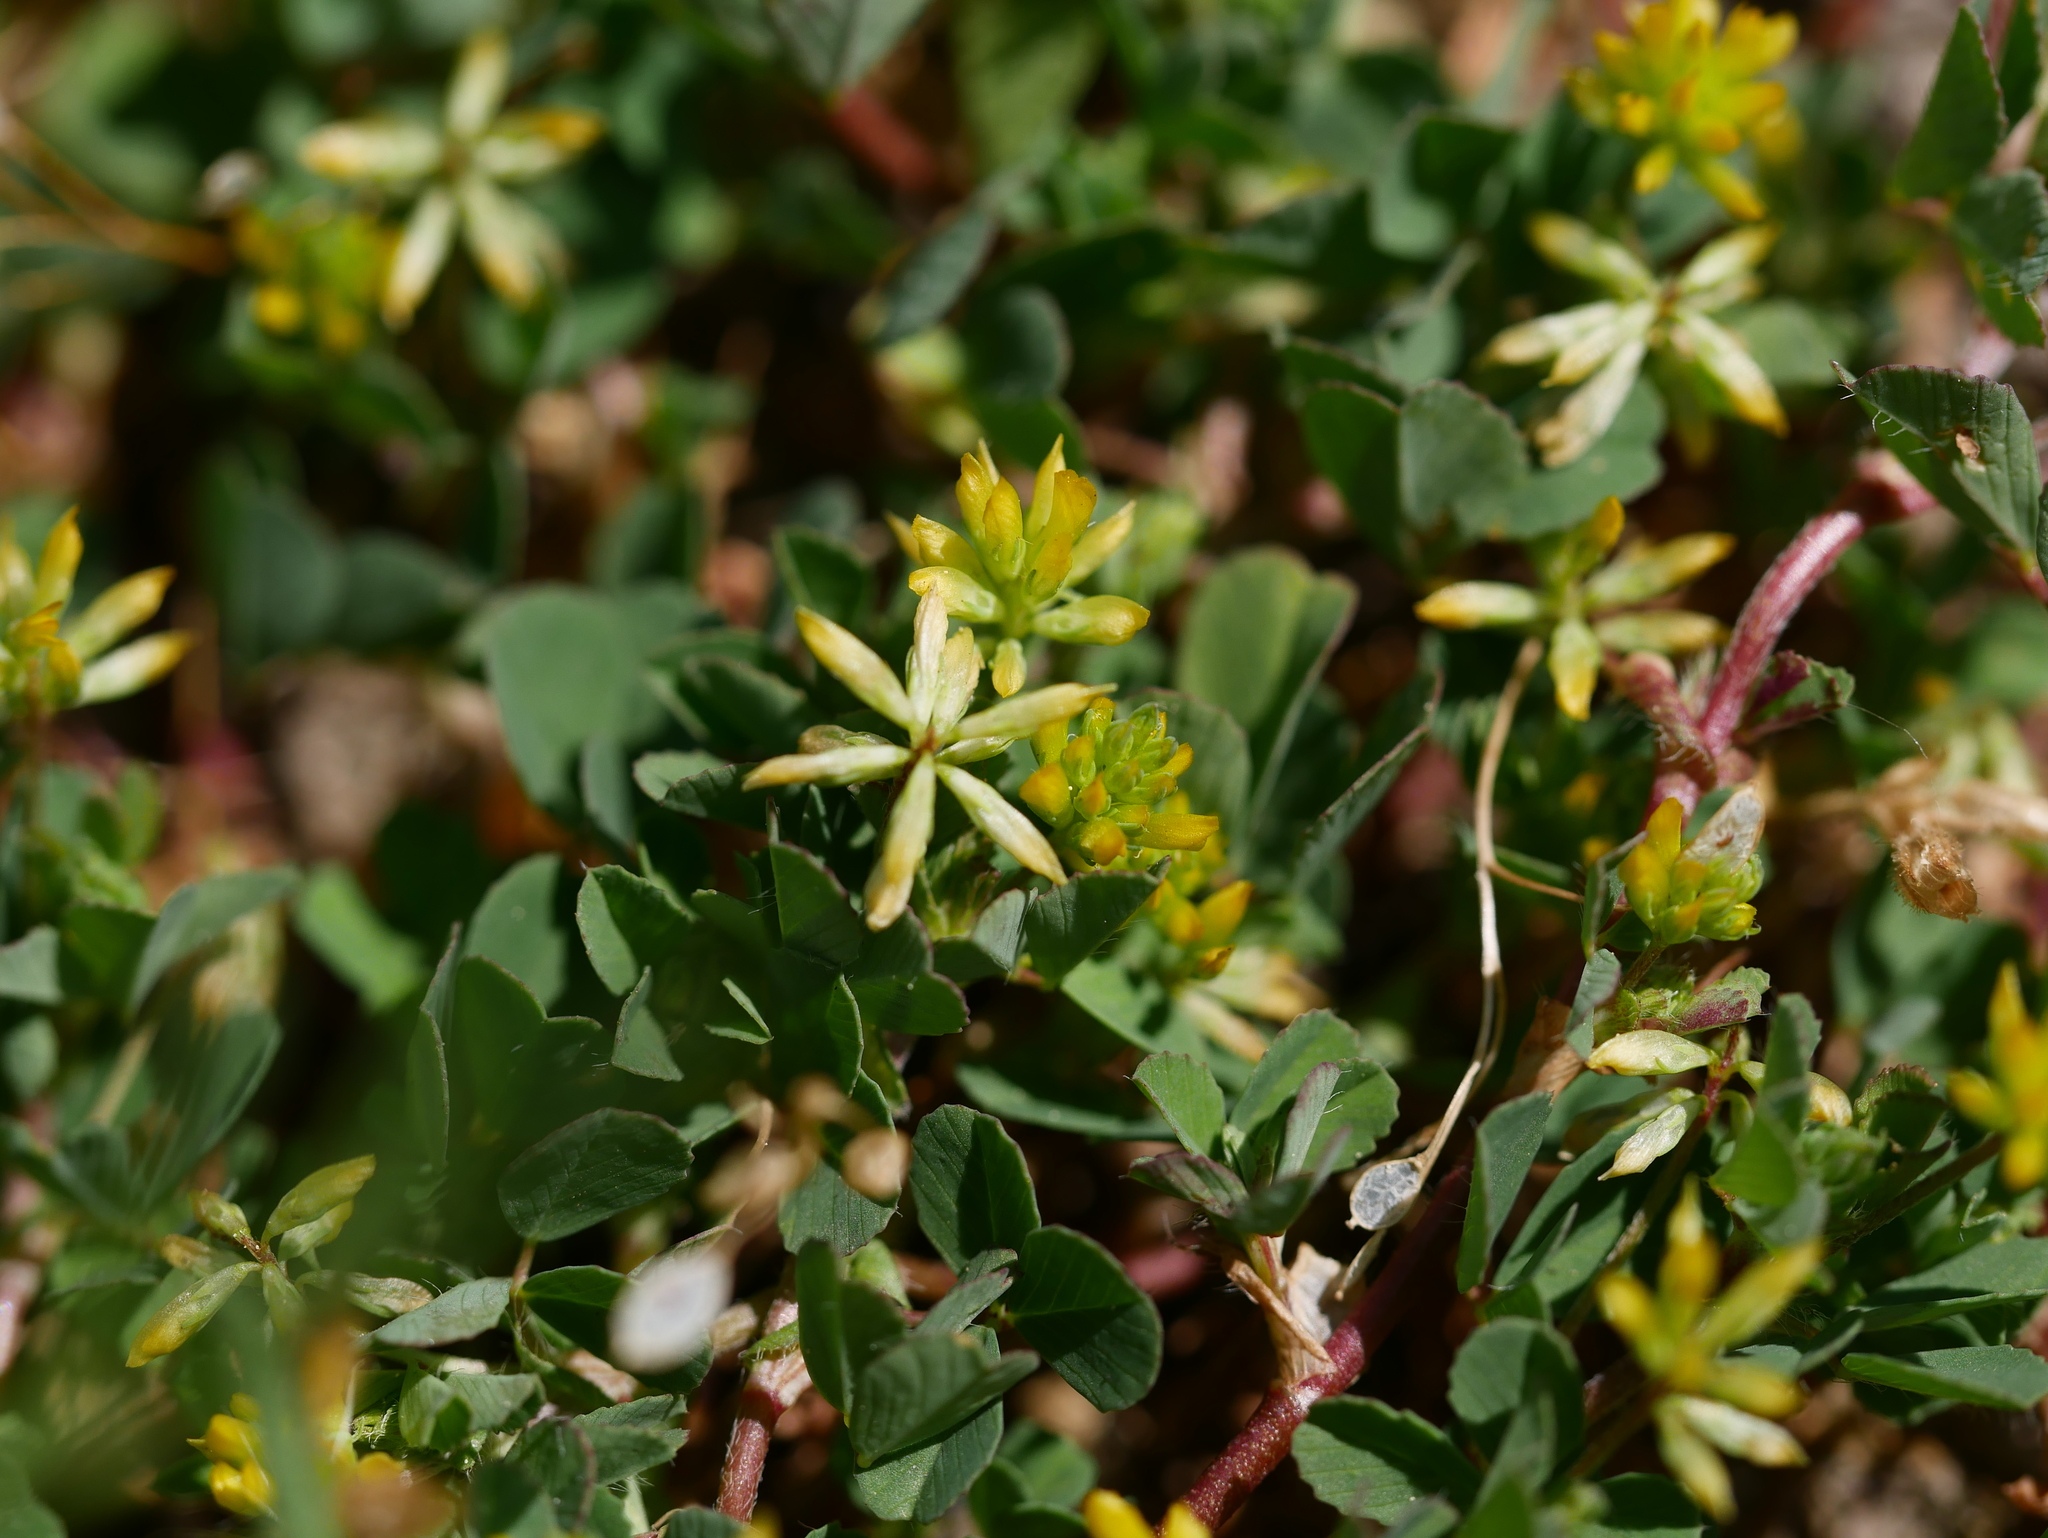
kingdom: Plantae
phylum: Tracheophyta
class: Magnoliopsida
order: Fabales
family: Fabaceae
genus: Trifolium
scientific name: Trifolium dubium
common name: Suckling clover
